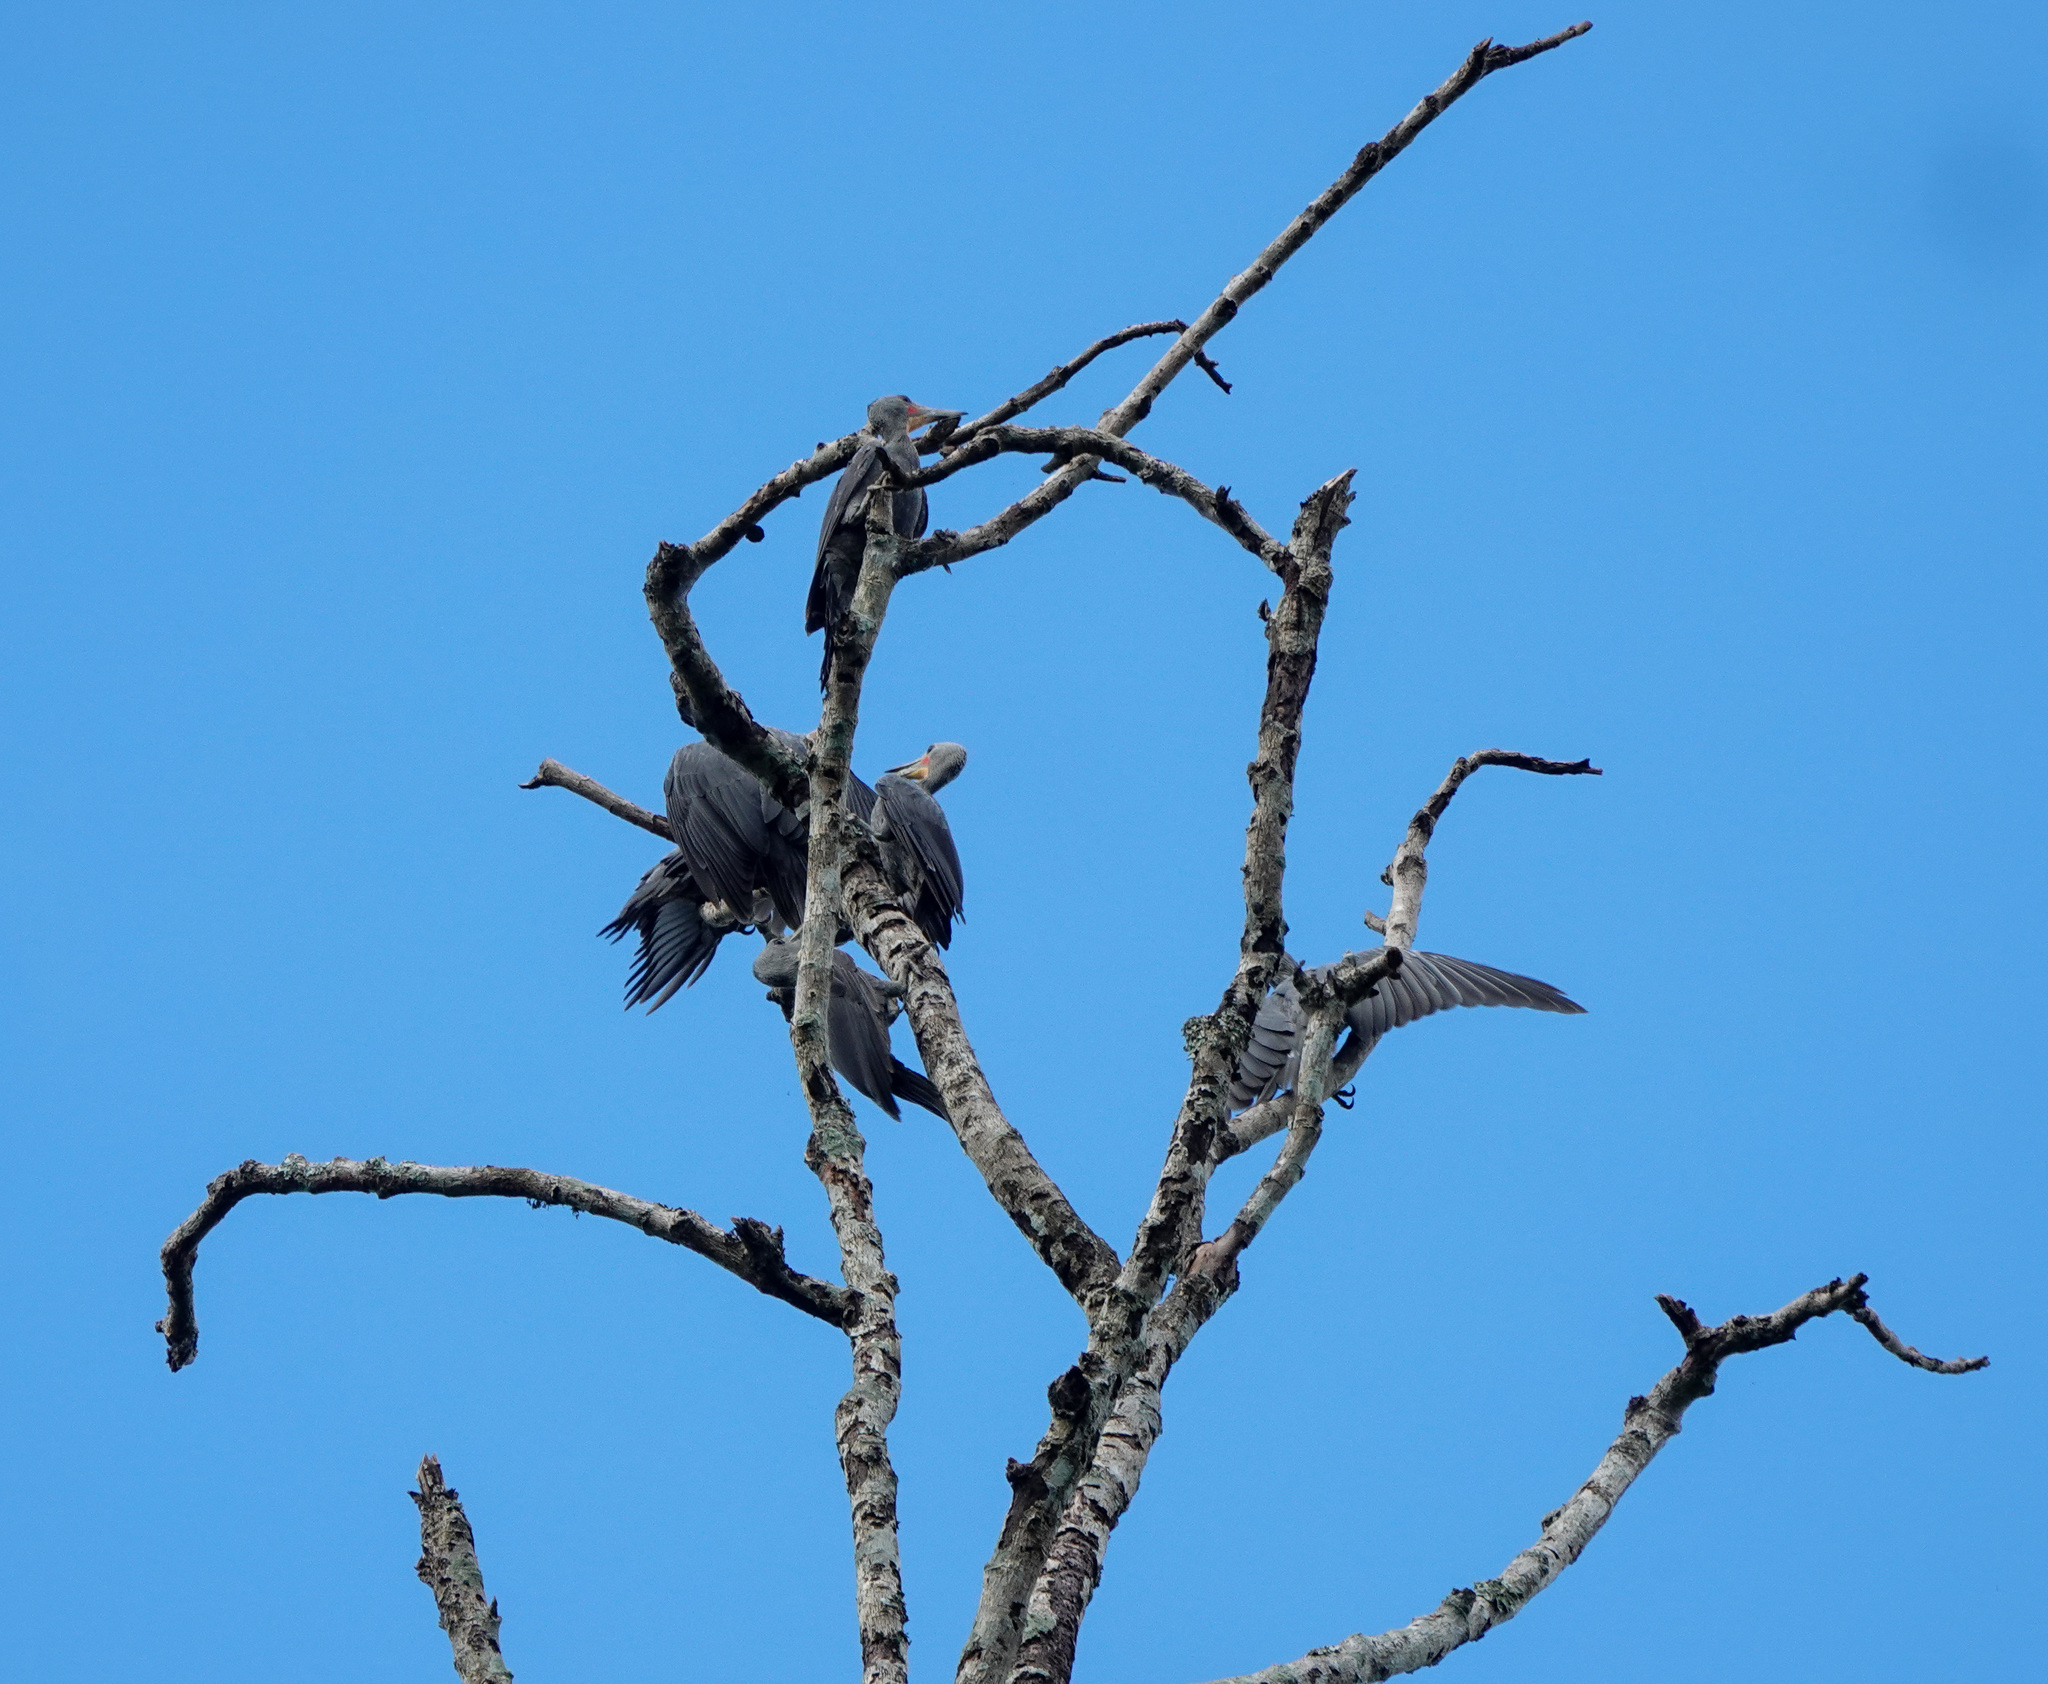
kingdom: Animalia
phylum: Chordata
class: Aves
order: Piciformes
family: Picidae
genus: Mulleripicus
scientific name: Mulleripicus pulverulentus
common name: Great slaty woodpecker
